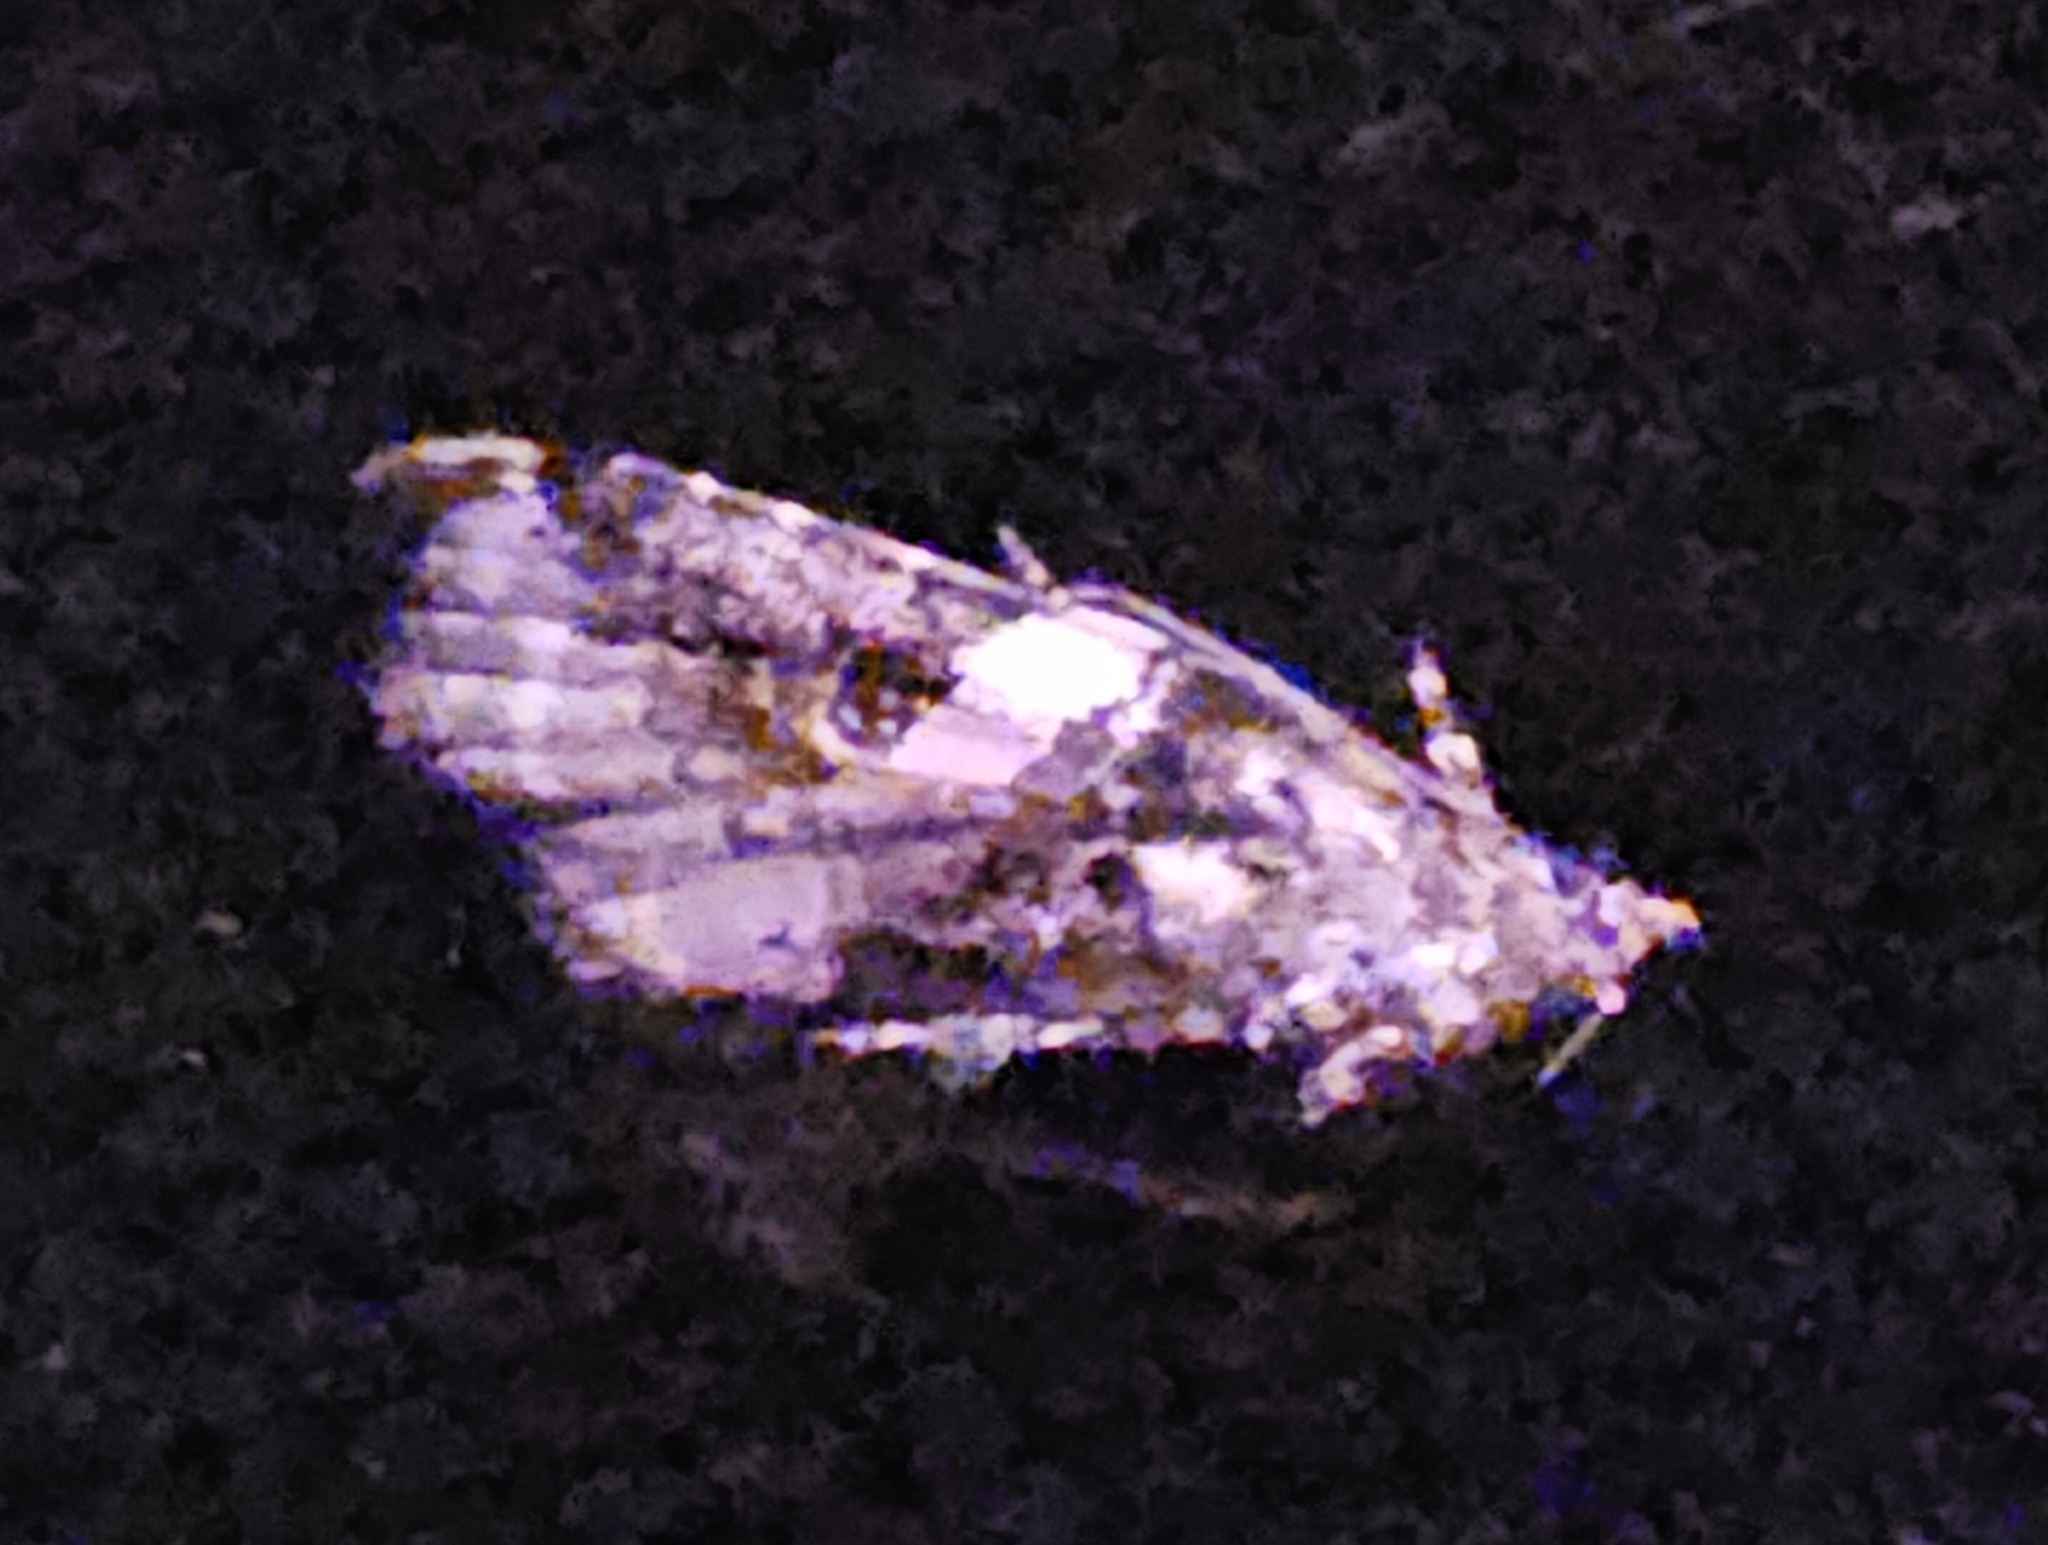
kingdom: Animalia
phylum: Arthropoda
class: Insecta
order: Lepidoptera
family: Noctuidae
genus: Pseudeustrotia
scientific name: Pseudeustrotia carneola
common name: Pink-barred lithacodia moth
